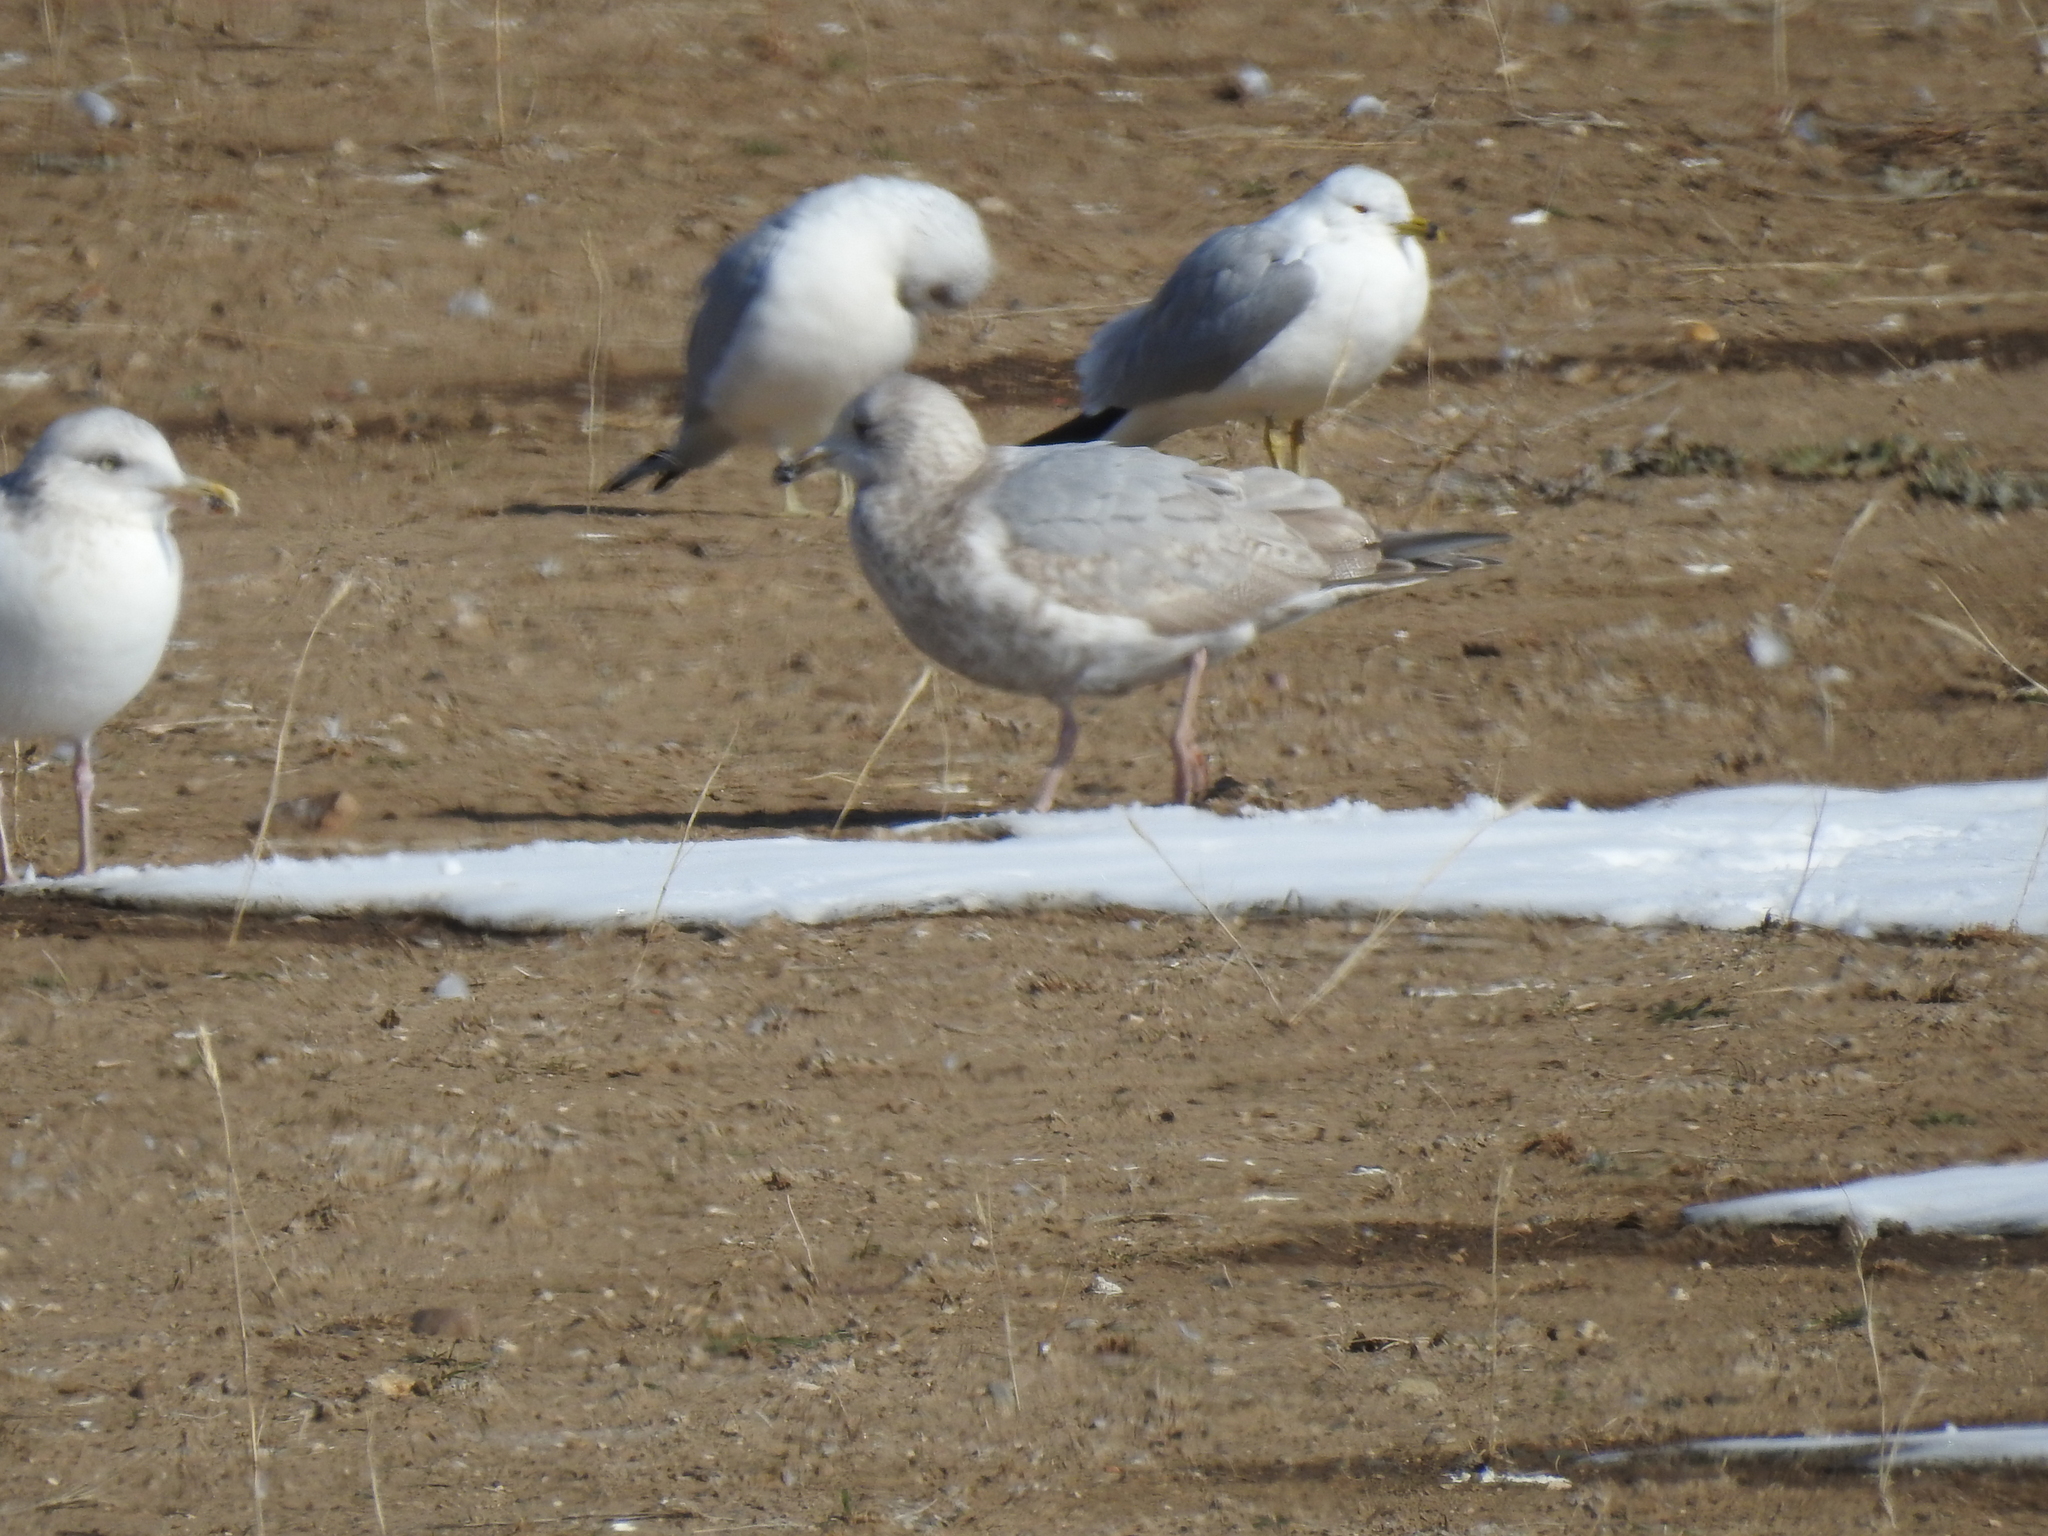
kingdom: Animalia
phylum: Chordata
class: Aves
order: Charadriiformes
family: Laridae
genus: Larus
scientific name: Larus glaucoides
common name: Iceland gull
